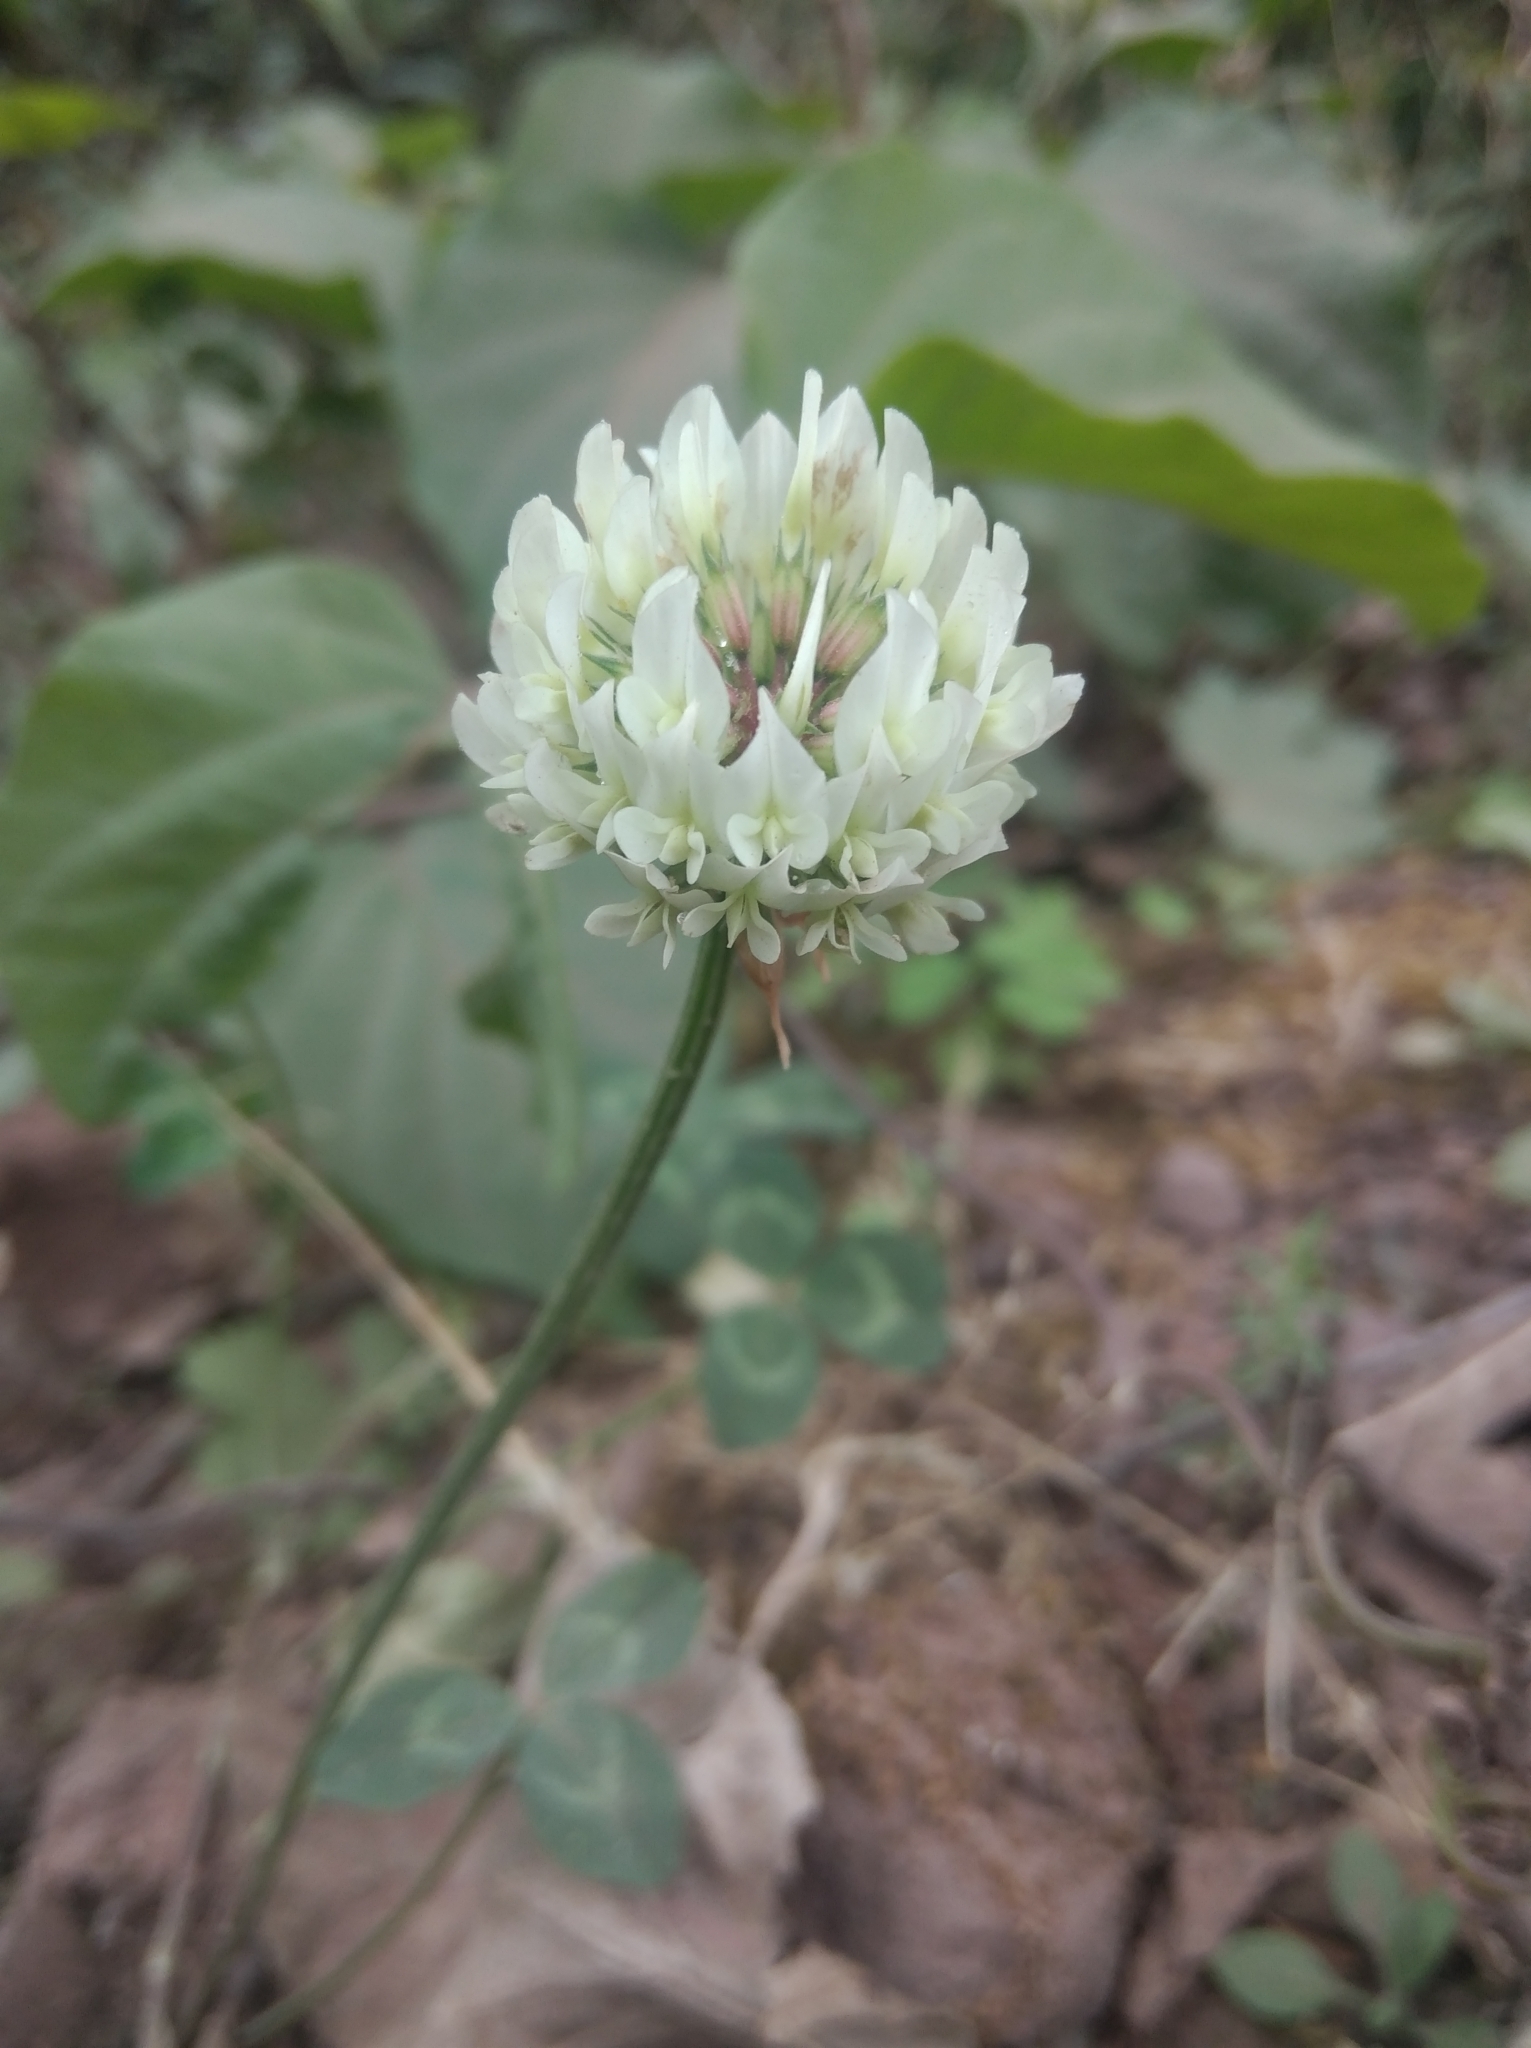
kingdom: Plantae
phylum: Tracheophyta
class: Magnoliopsida
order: Fabales
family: Fabaceae
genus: Trifolium
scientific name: Trifolium repens
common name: White clover
